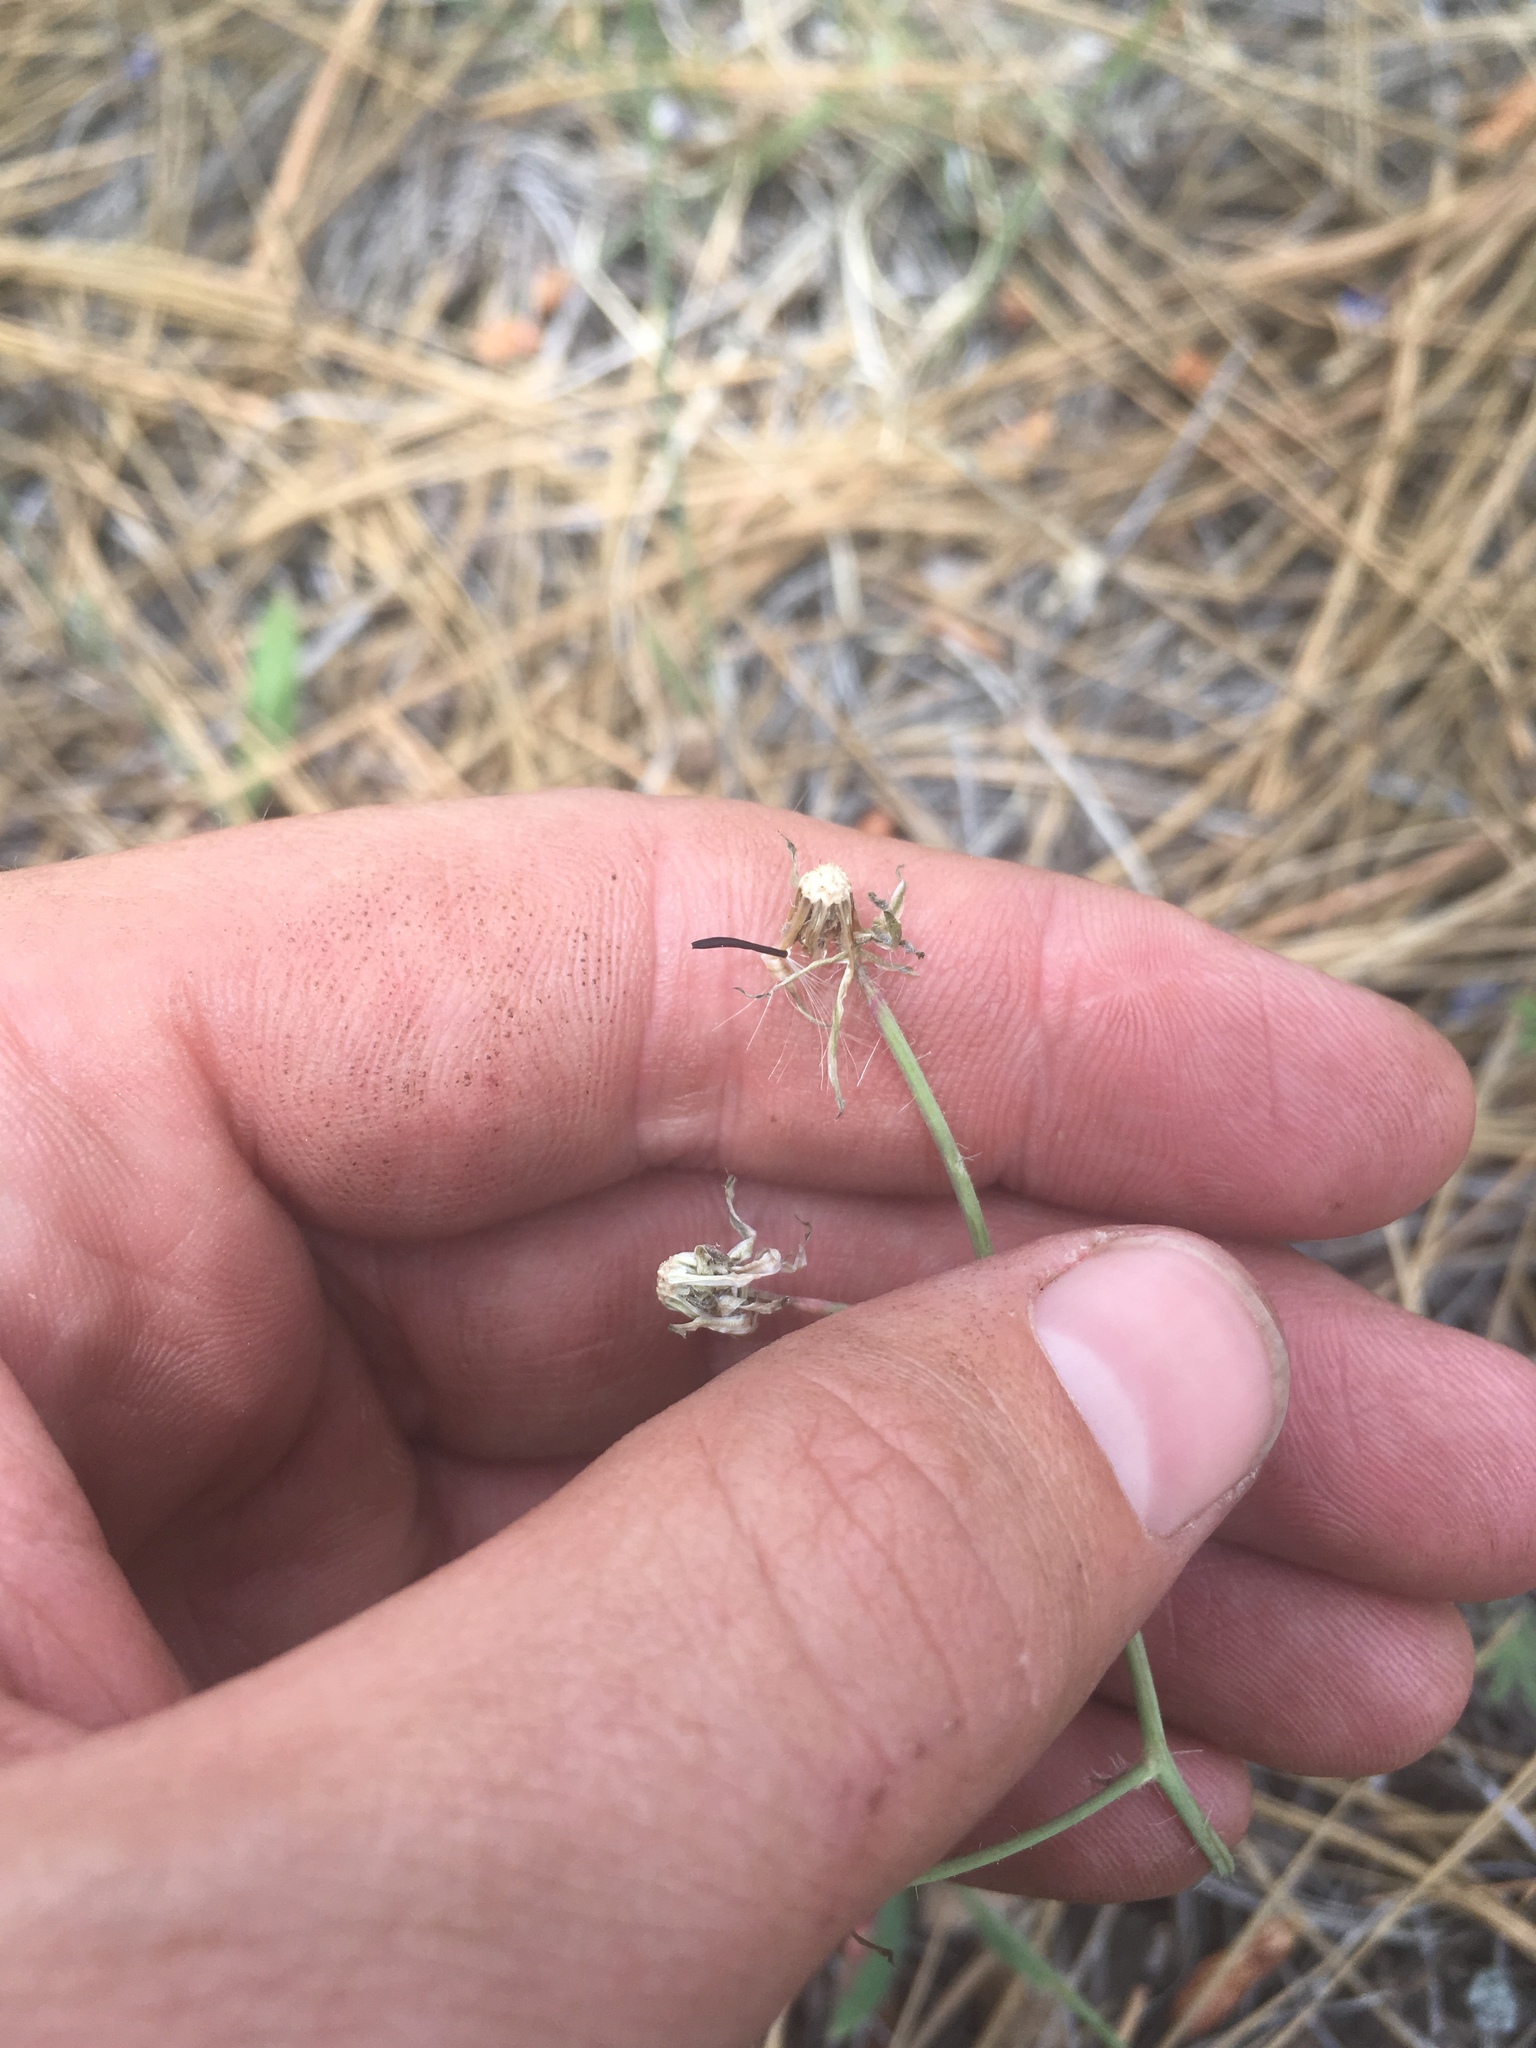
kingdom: Plantae
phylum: Tracheophyta
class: Magnoliopsida
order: Asterales
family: Asteraceae
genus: Hieracium
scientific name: Hieracium fendleri
